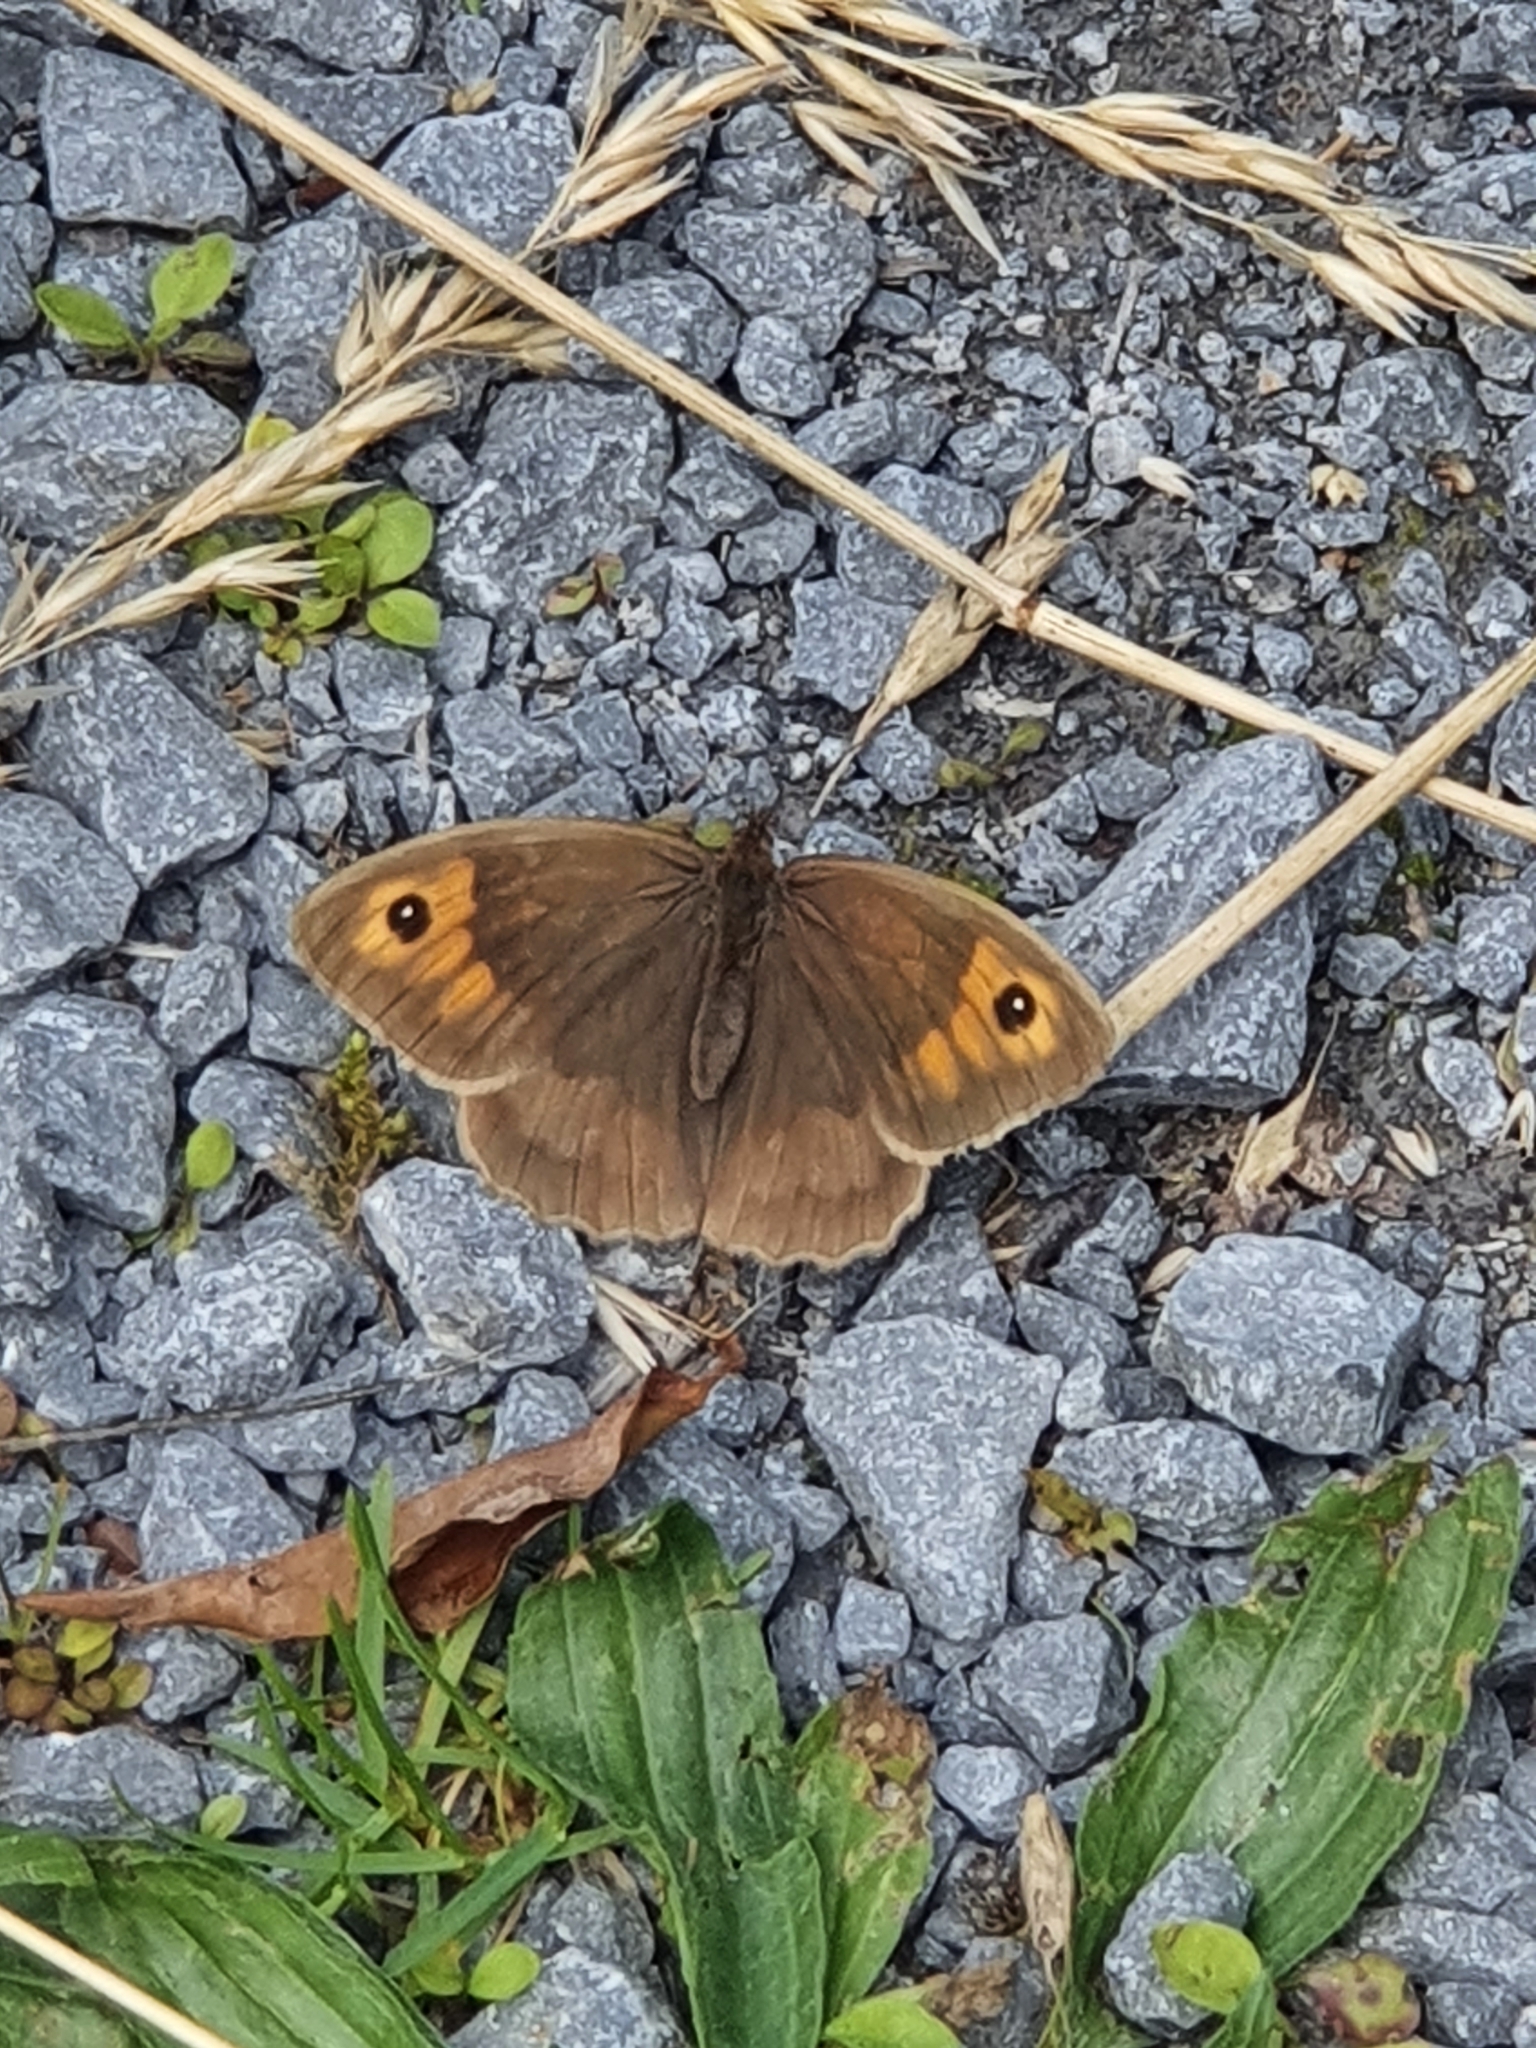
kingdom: Animalia
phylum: Arthropoda
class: Insecta
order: Lepidoptera
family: Nymphalidae
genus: Maniola
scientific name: Maniola jurtina
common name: Meadow brown
